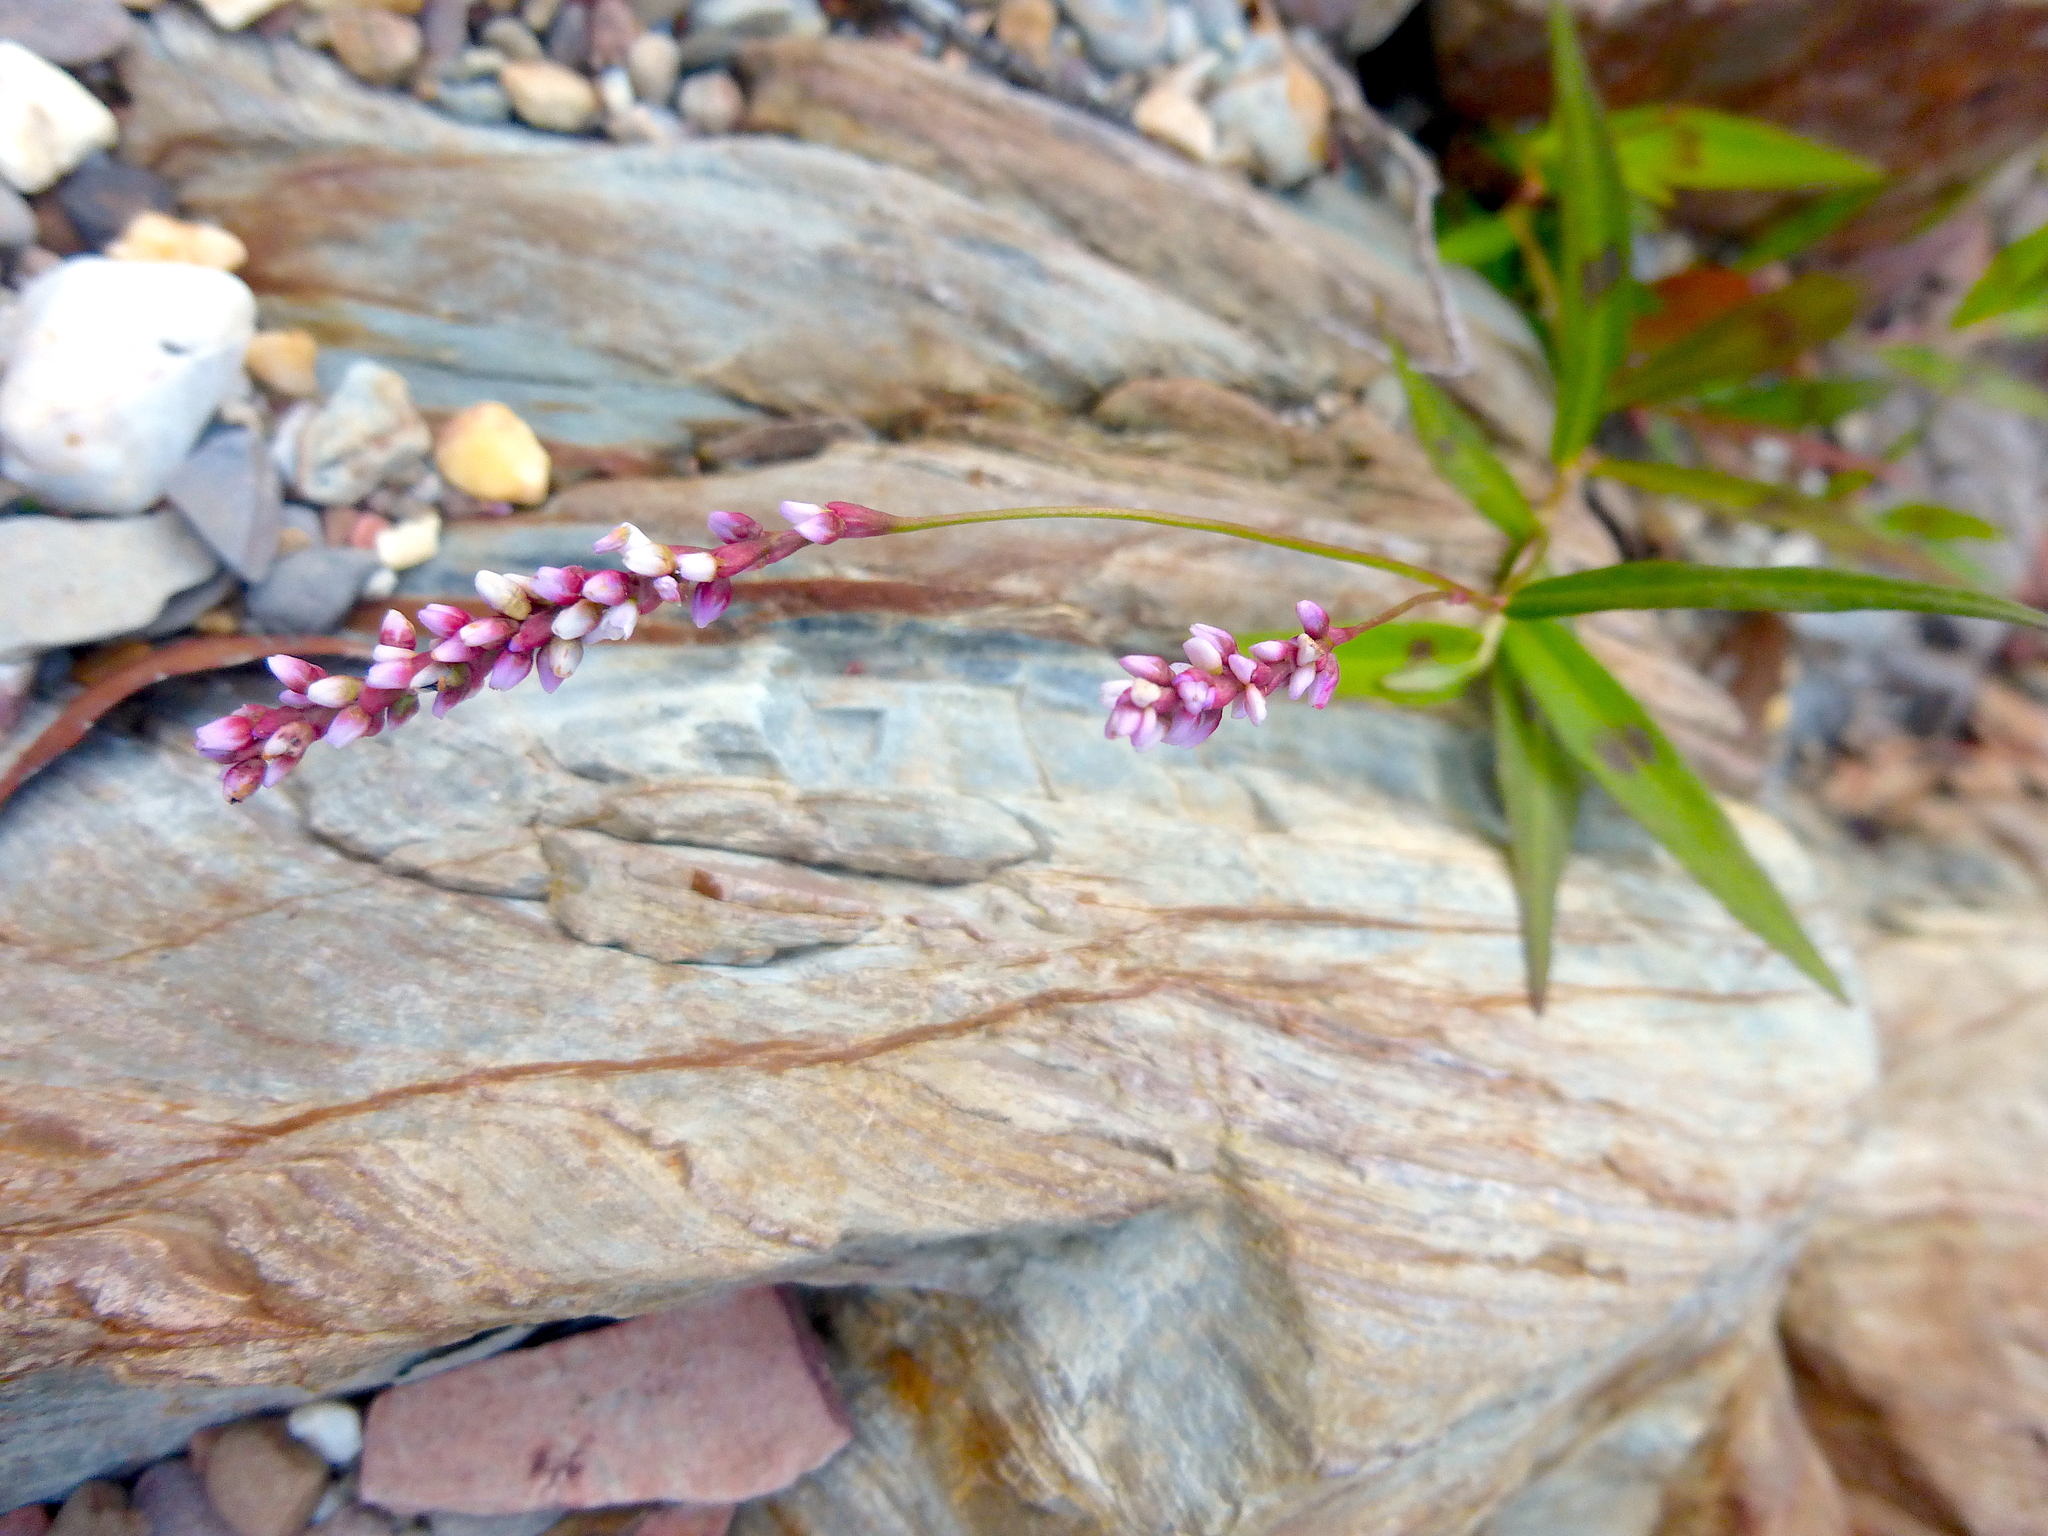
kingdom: Plantae
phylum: Tracheophyta
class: Magnoliopsida
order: Caryophyllales
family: Polygonaceae
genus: Persicaria
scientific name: Persicaria decipiens
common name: Willow-weed
